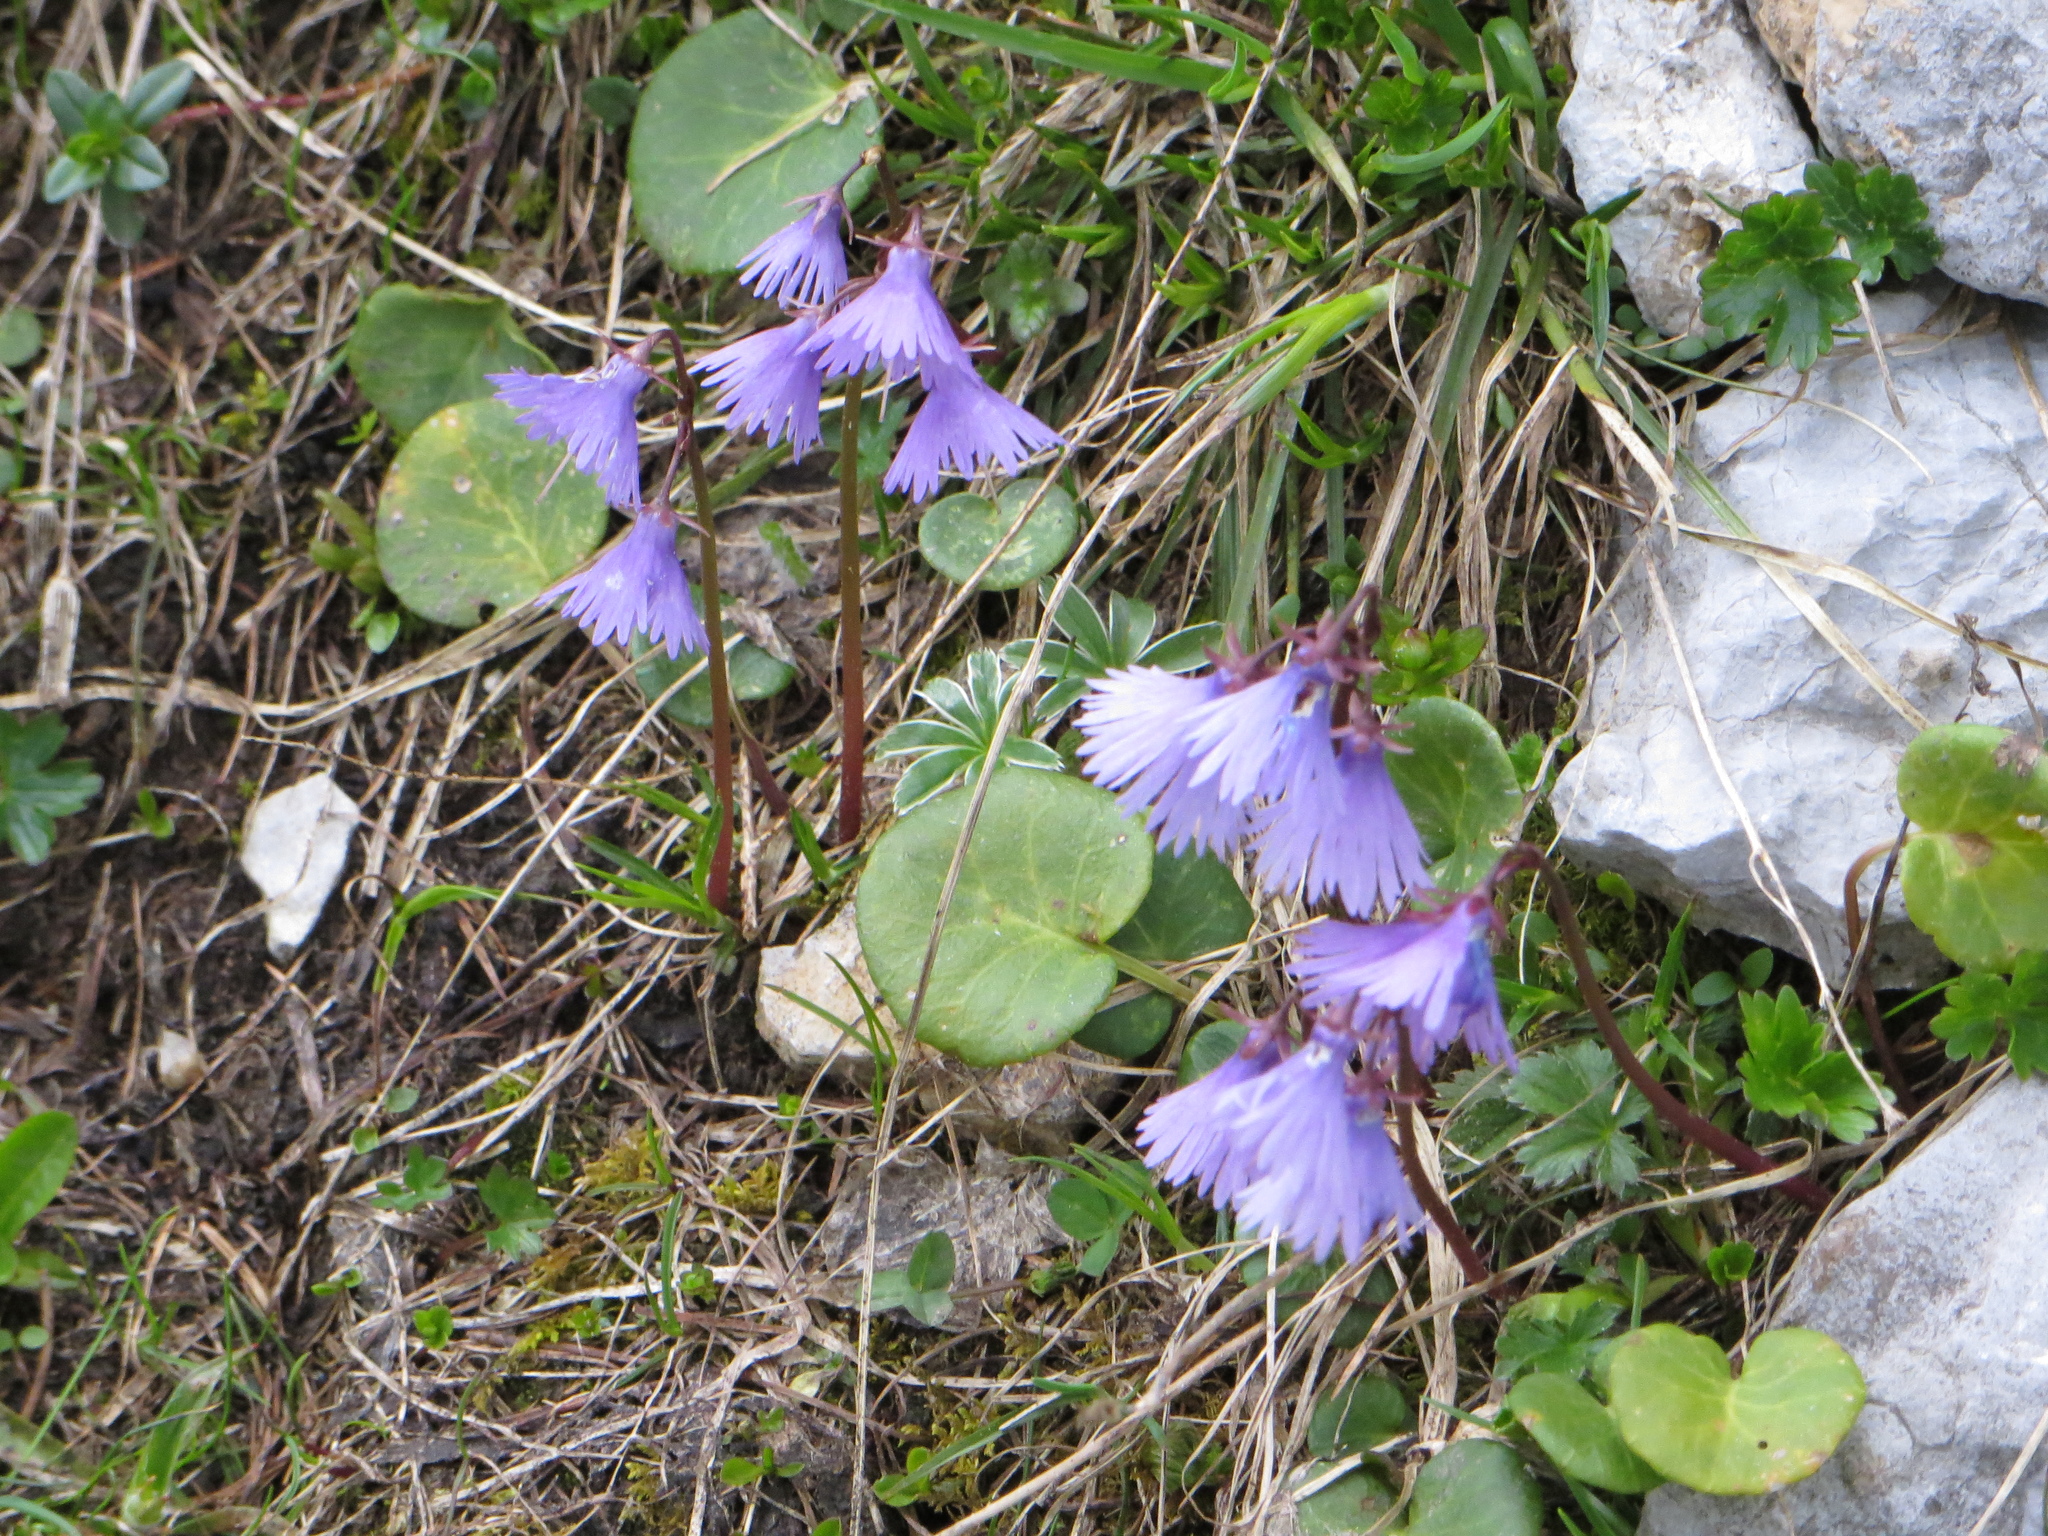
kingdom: Plantae
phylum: Tracheophyta
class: Magnoliopsida
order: Ericales
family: Primulaceae
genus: Soldanella
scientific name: Soldanella alpina
